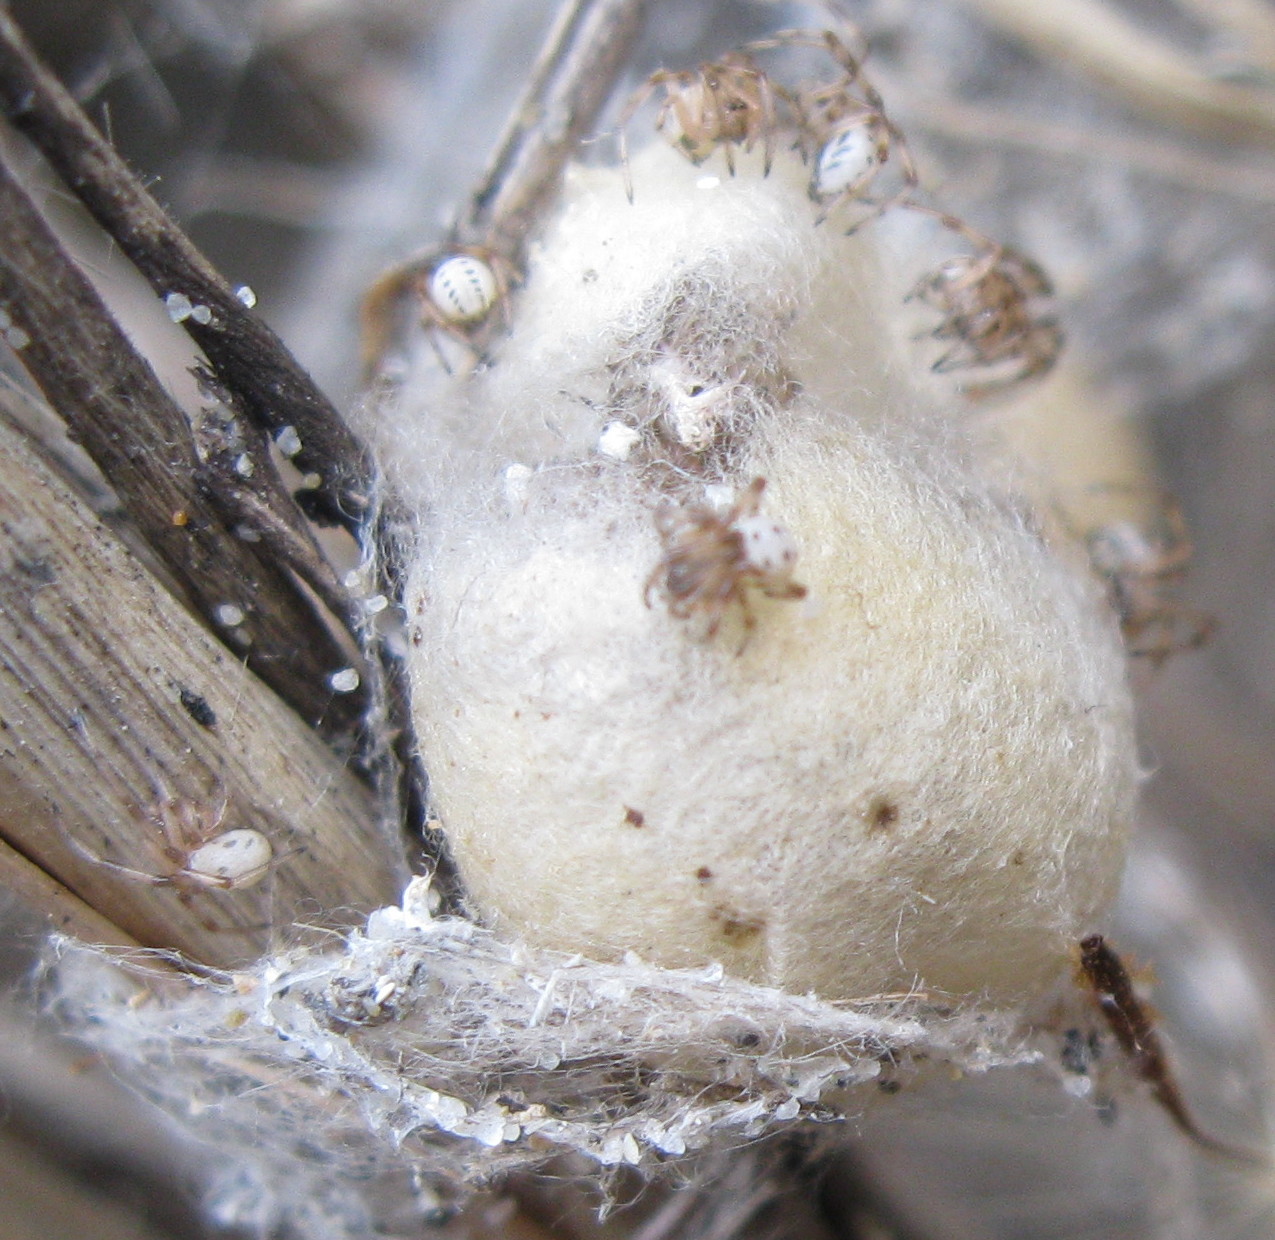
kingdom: Animalia
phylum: Arthropoda
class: Arachnida
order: Araneae
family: Theridiidae
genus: Latrodectus
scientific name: Latrodectus katipo
